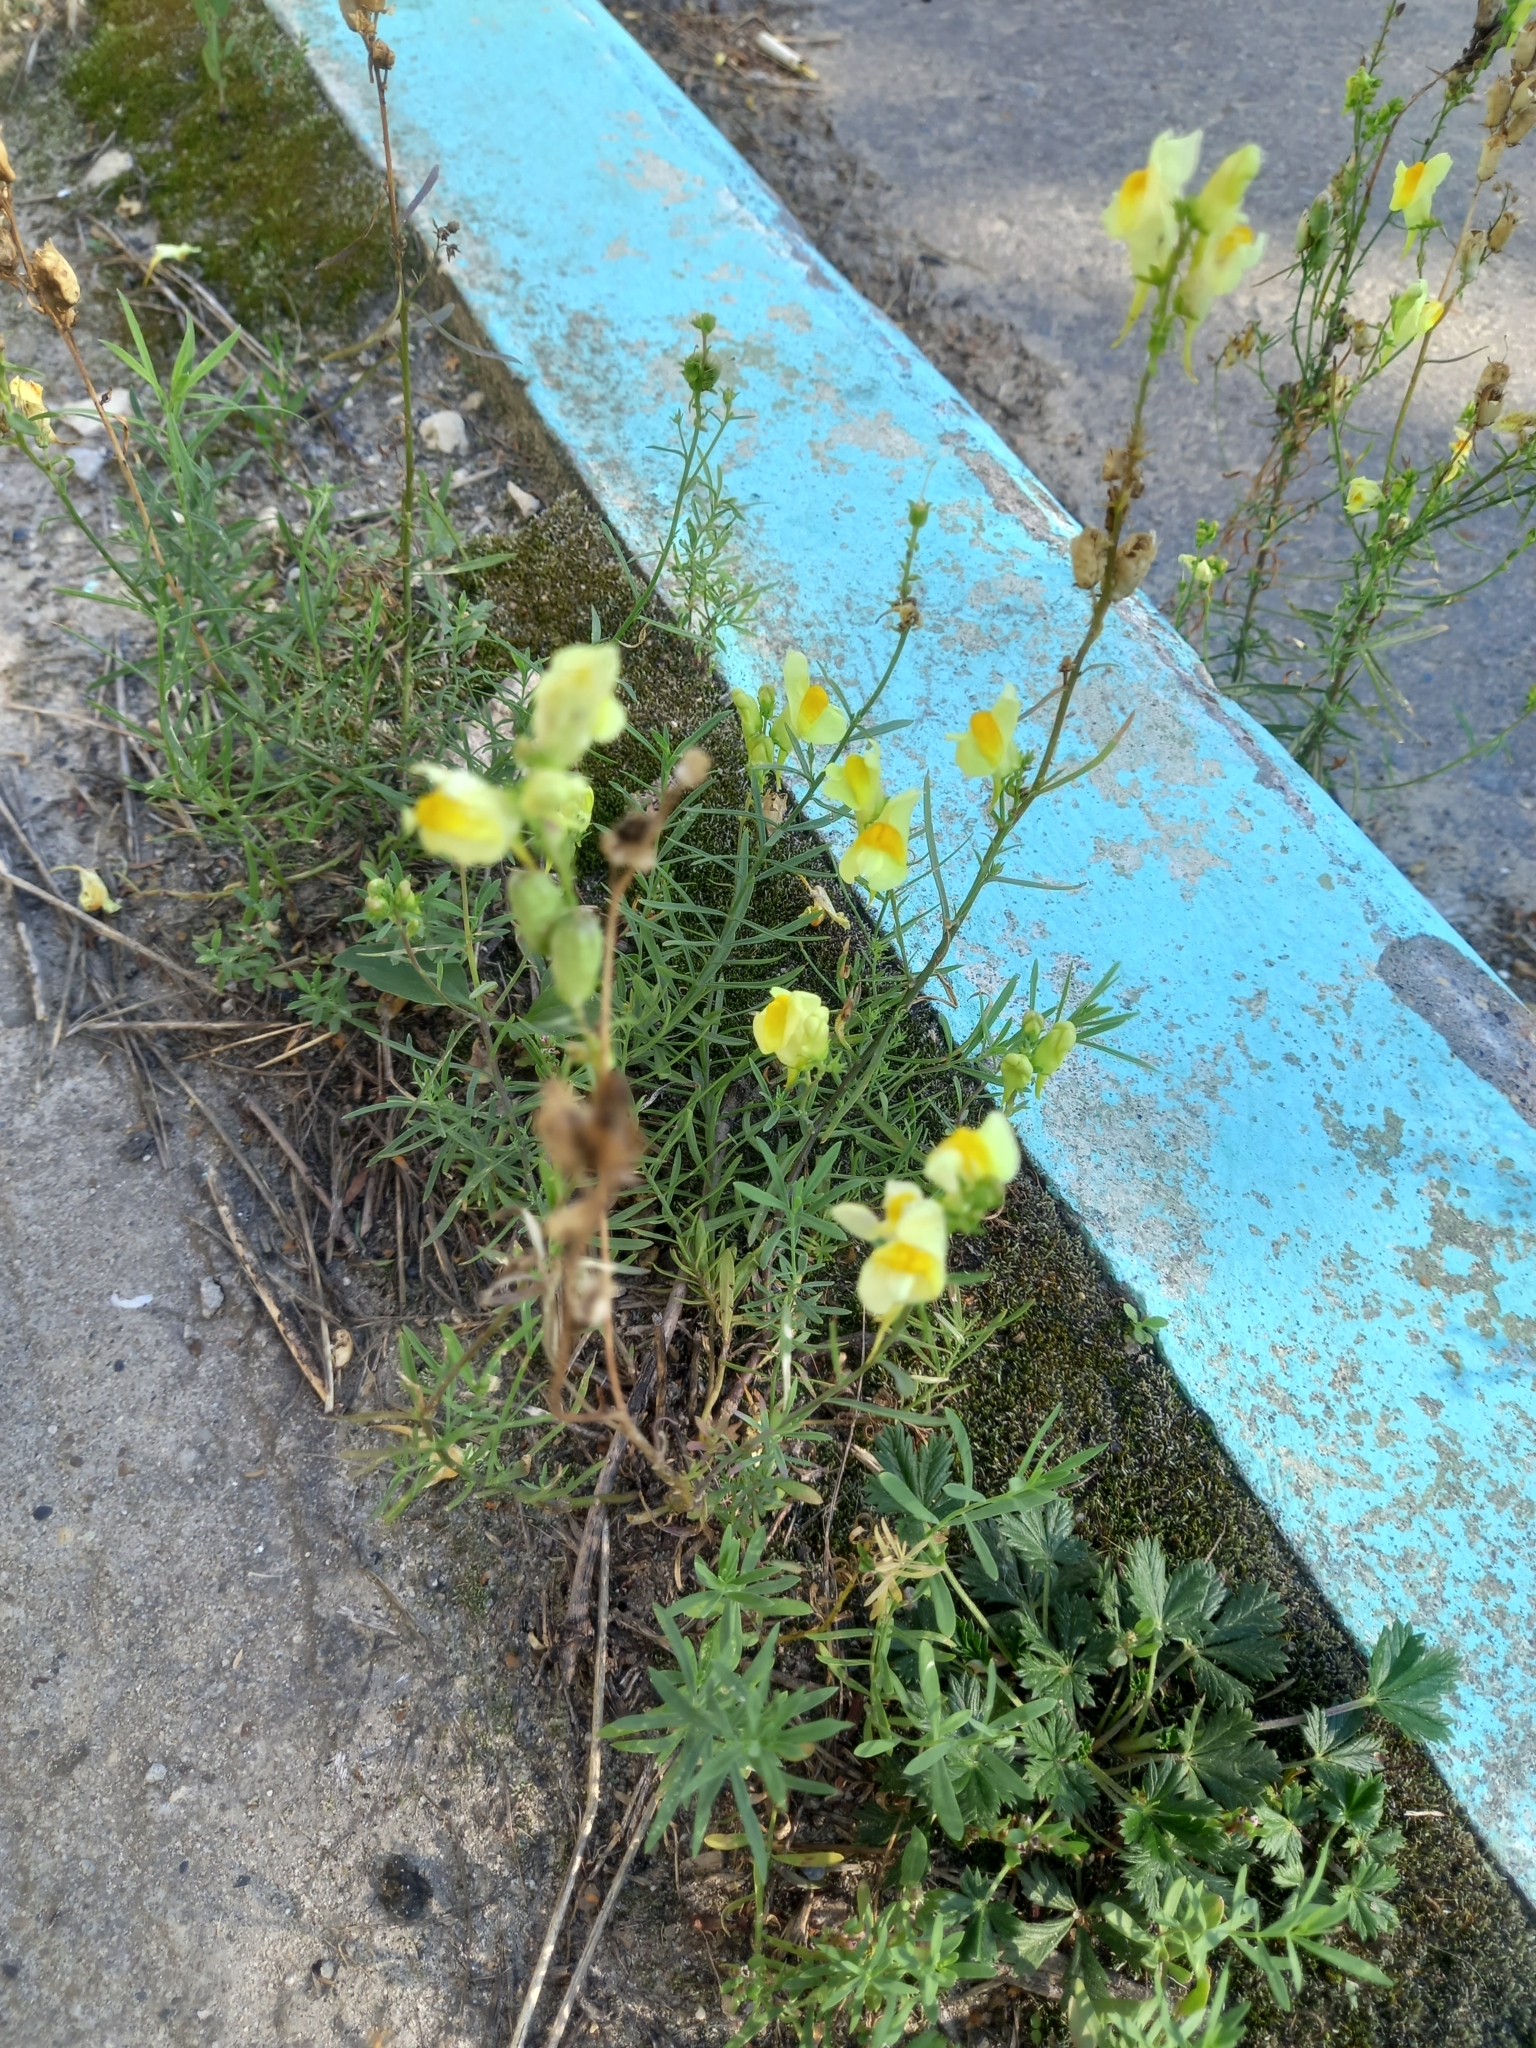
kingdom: Plantae
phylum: Tracheophyta
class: Magnoliopsida
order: Lamiales
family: Plantaginaceae
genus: Linaria
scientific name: Linaria vulgaris
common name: Butter and eggs
